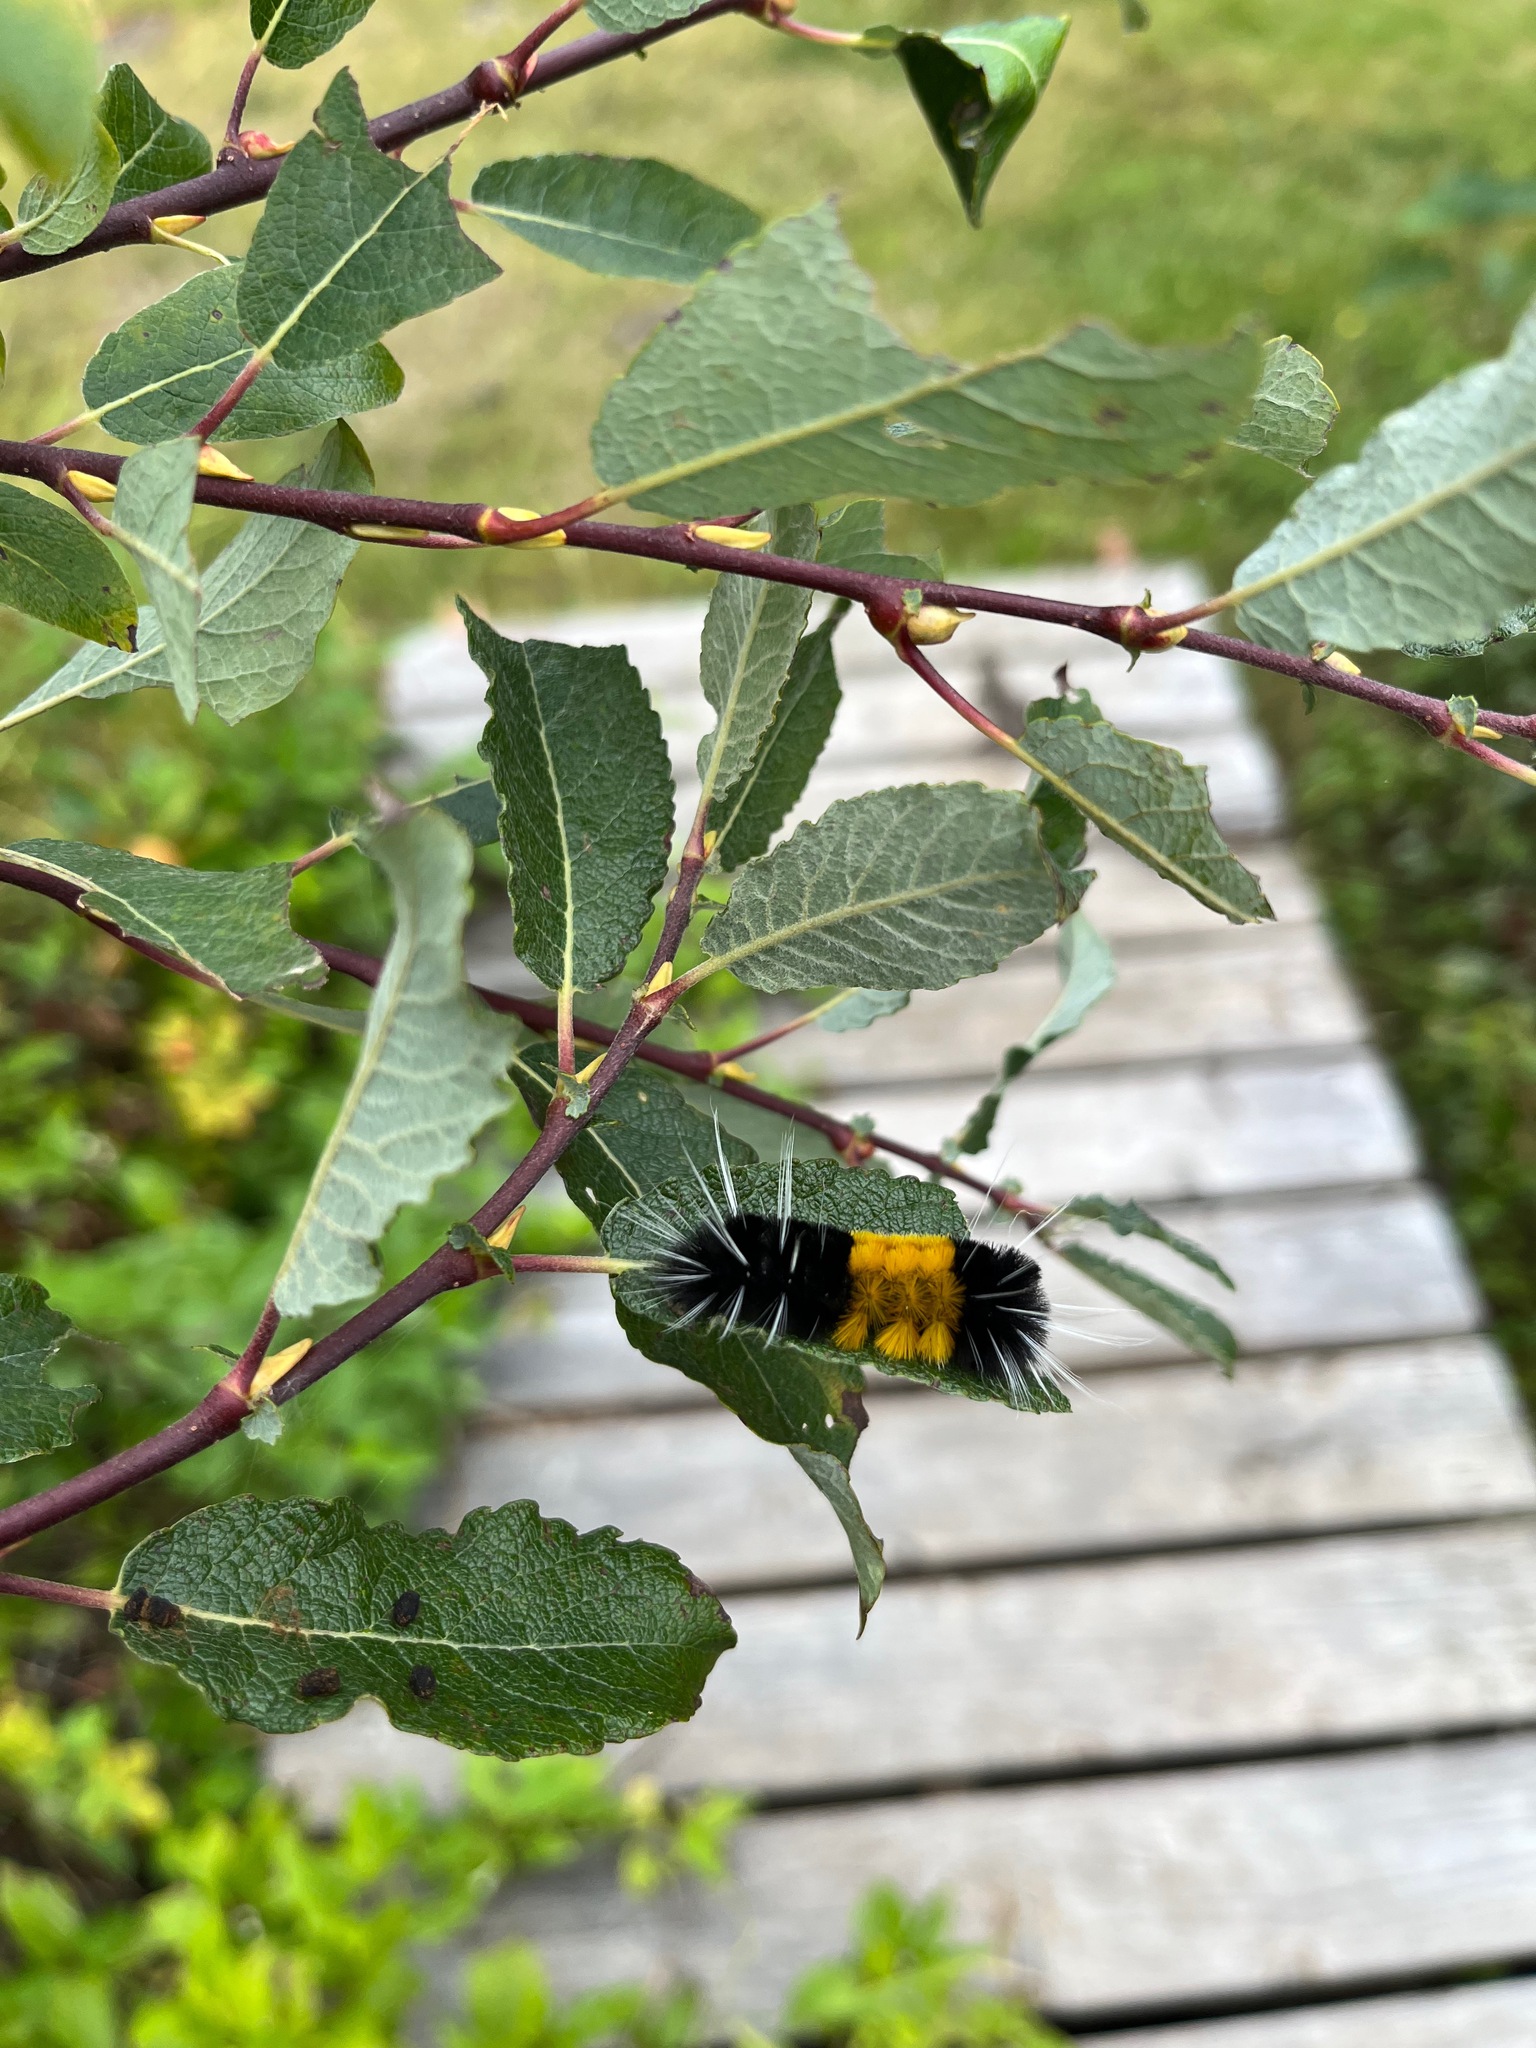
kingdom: Animalia
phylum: Arthropoda
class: Insecta
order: Lepidoptera
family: Erebidae
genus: Lophocampa
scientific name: Lophocampa maculata
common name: Spotted tussock moth
